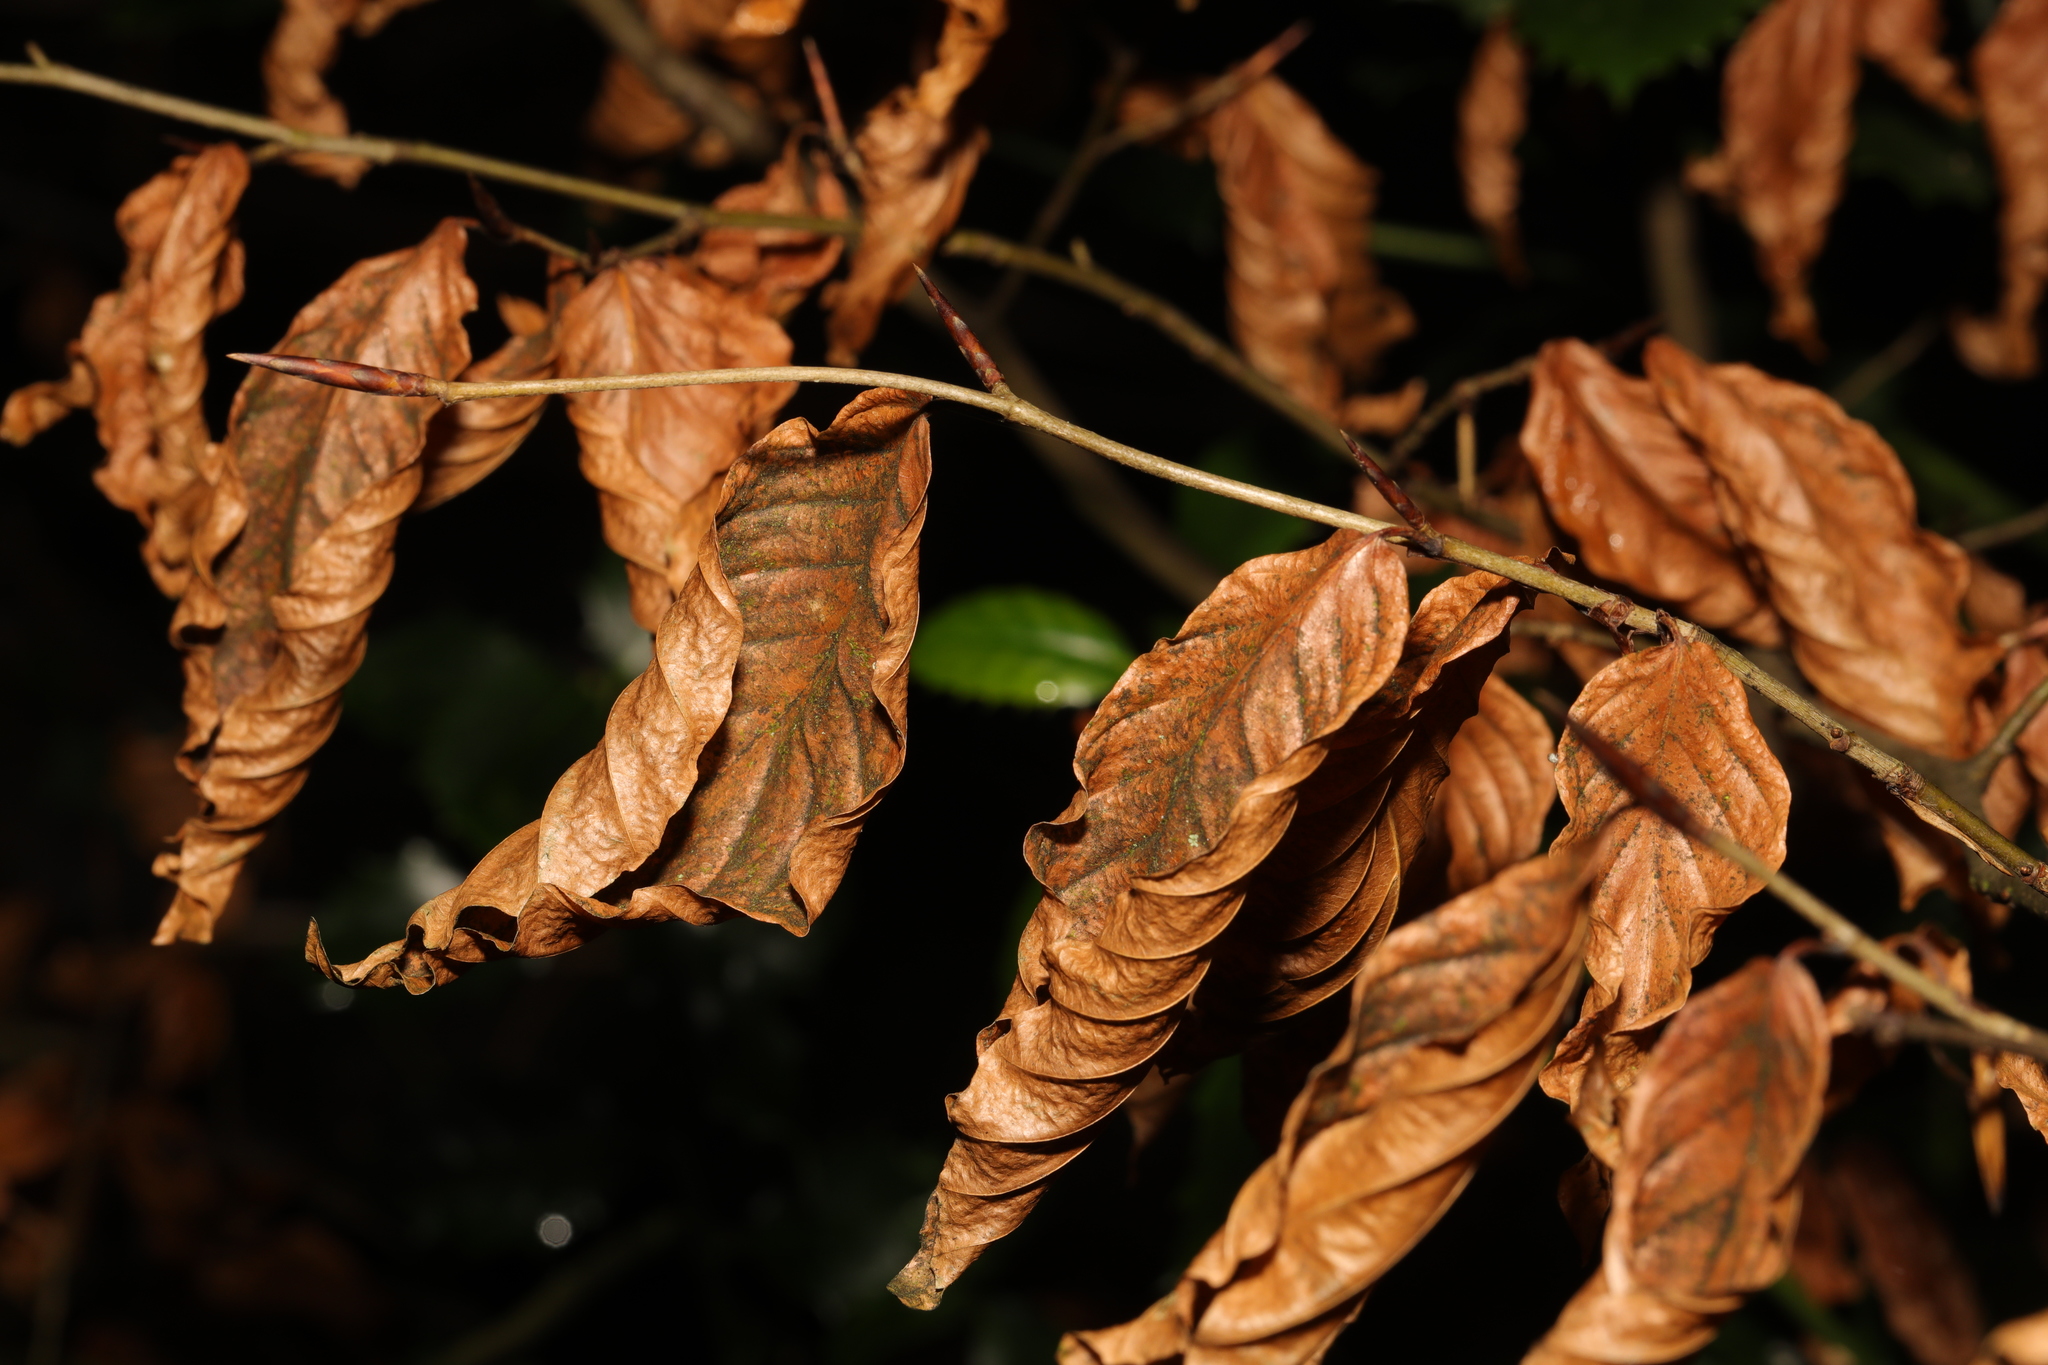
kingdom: Plantae
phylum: Tracheophyta
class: Magnoliopsida
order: Fagales
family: Fagaceae
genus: Fagus
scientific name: Fagus sylvatica
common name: Beech
